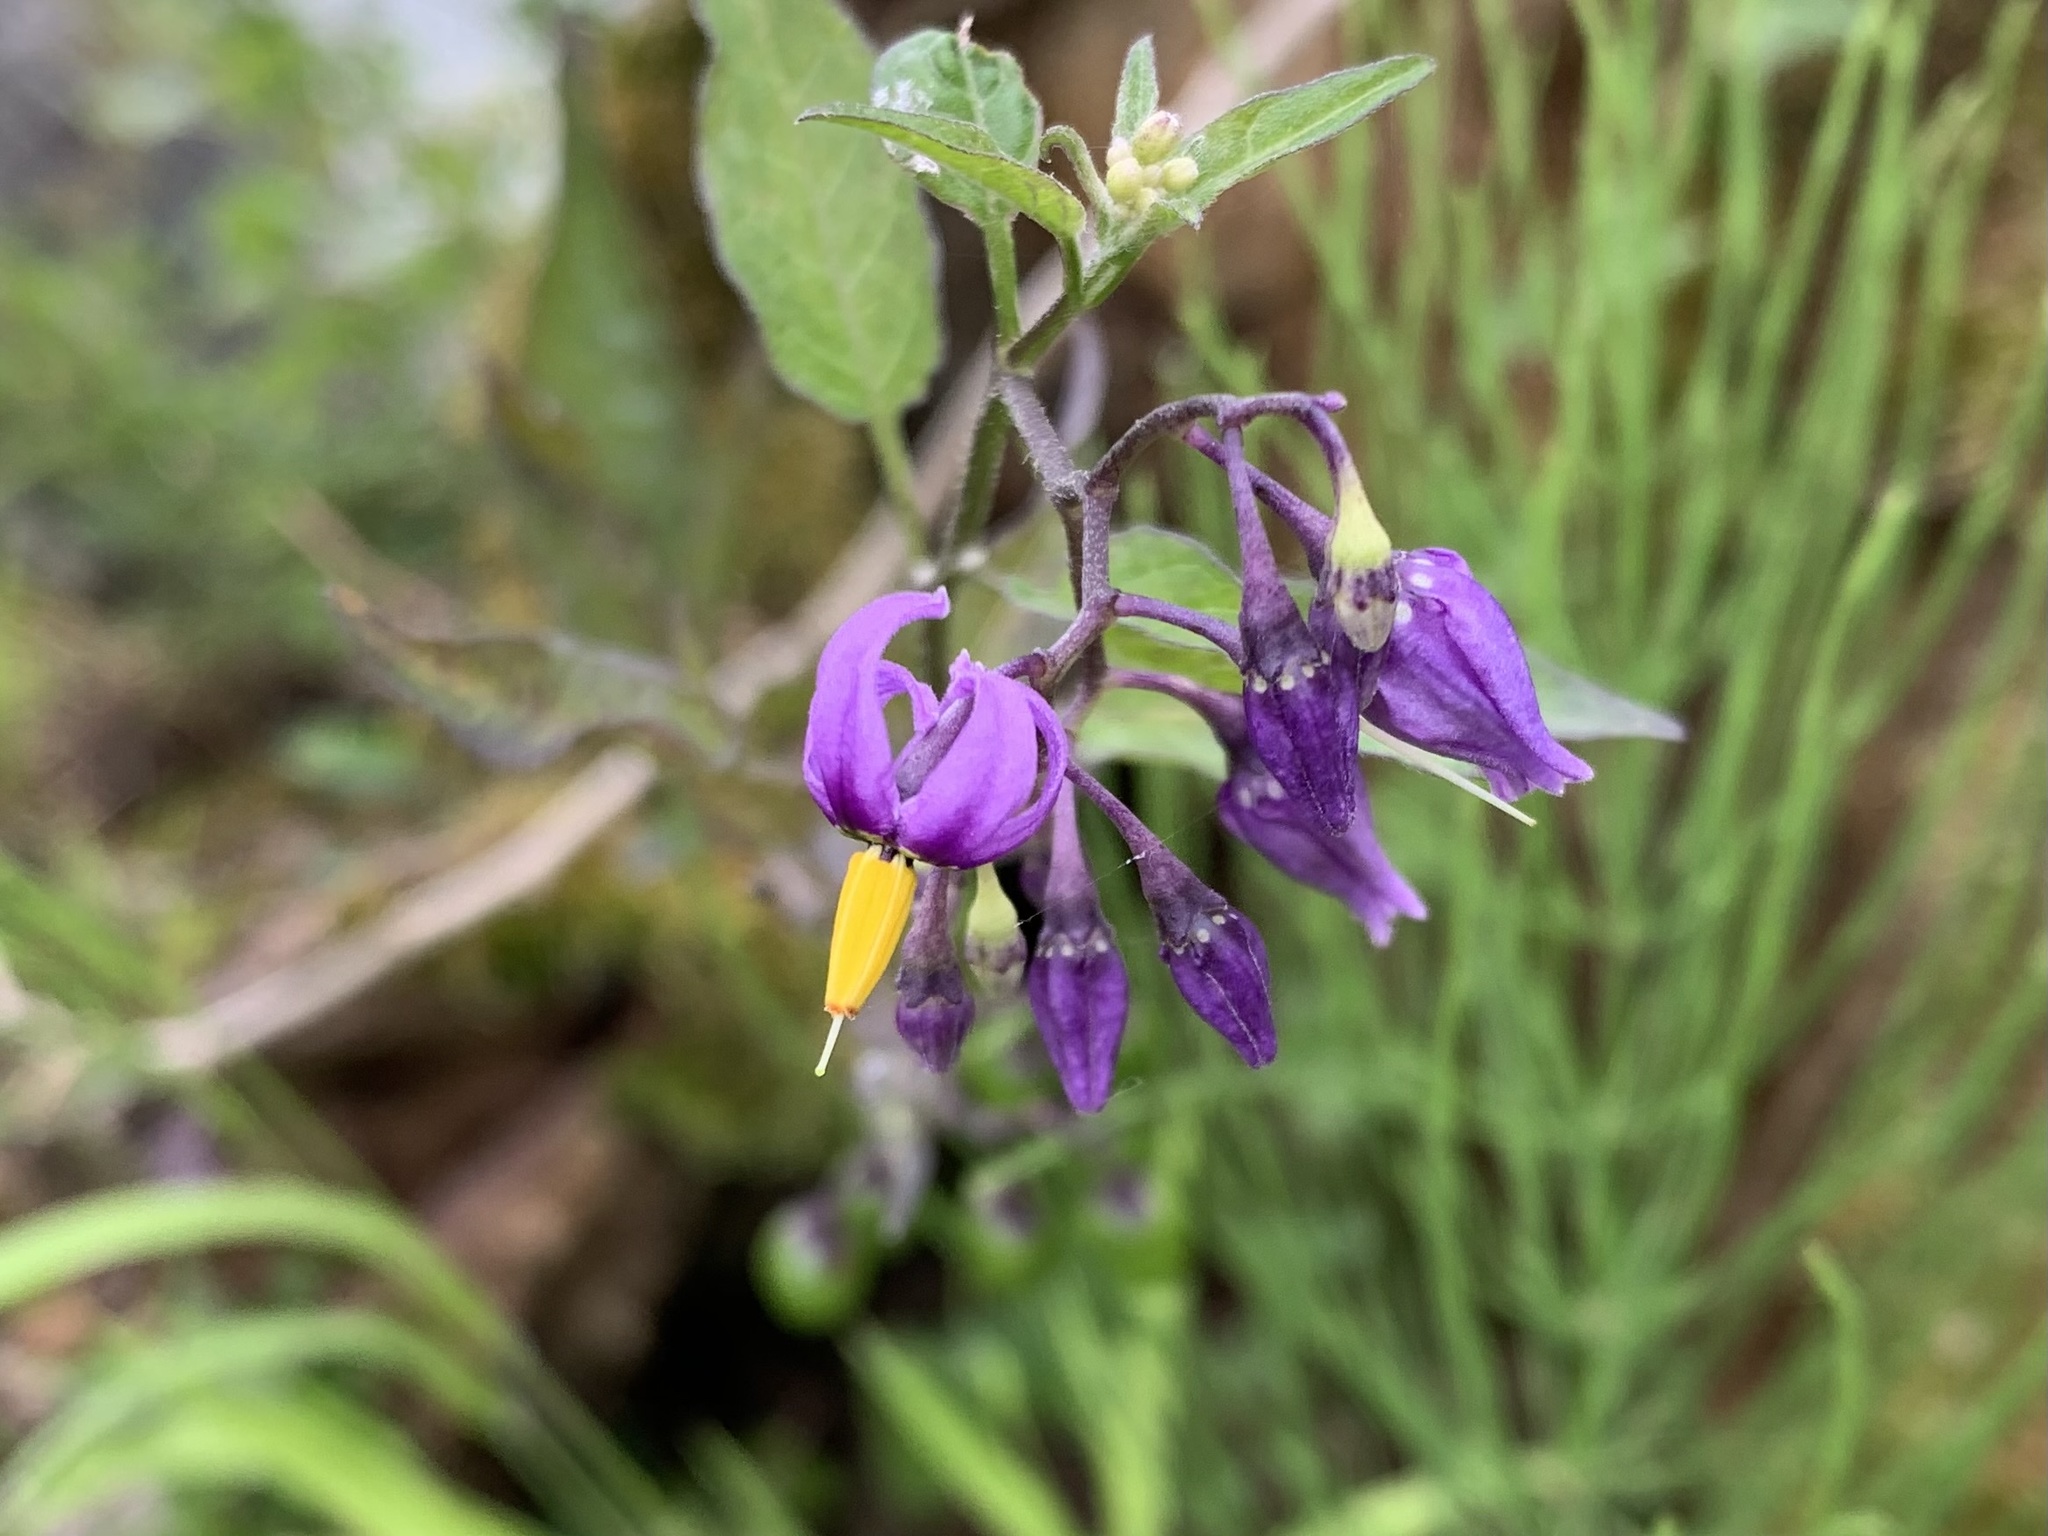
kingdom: Plantae
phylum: Tracheophyta
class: Magnoliopsida
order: Solanales
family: Solanaceae
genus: Solanum
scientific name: Solanum dulcamara
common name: Climbing nightshade
